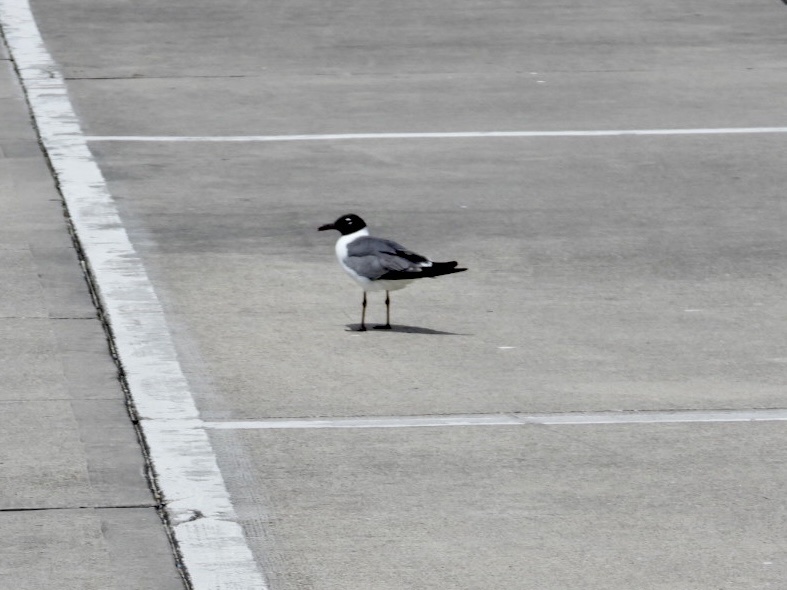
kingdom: Animalia
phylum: Chordata
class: Aves
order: Charadriiformes
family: Laridae
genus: Leucophaeus
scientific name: Leucophaeus atricilla
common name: Laughing gull
